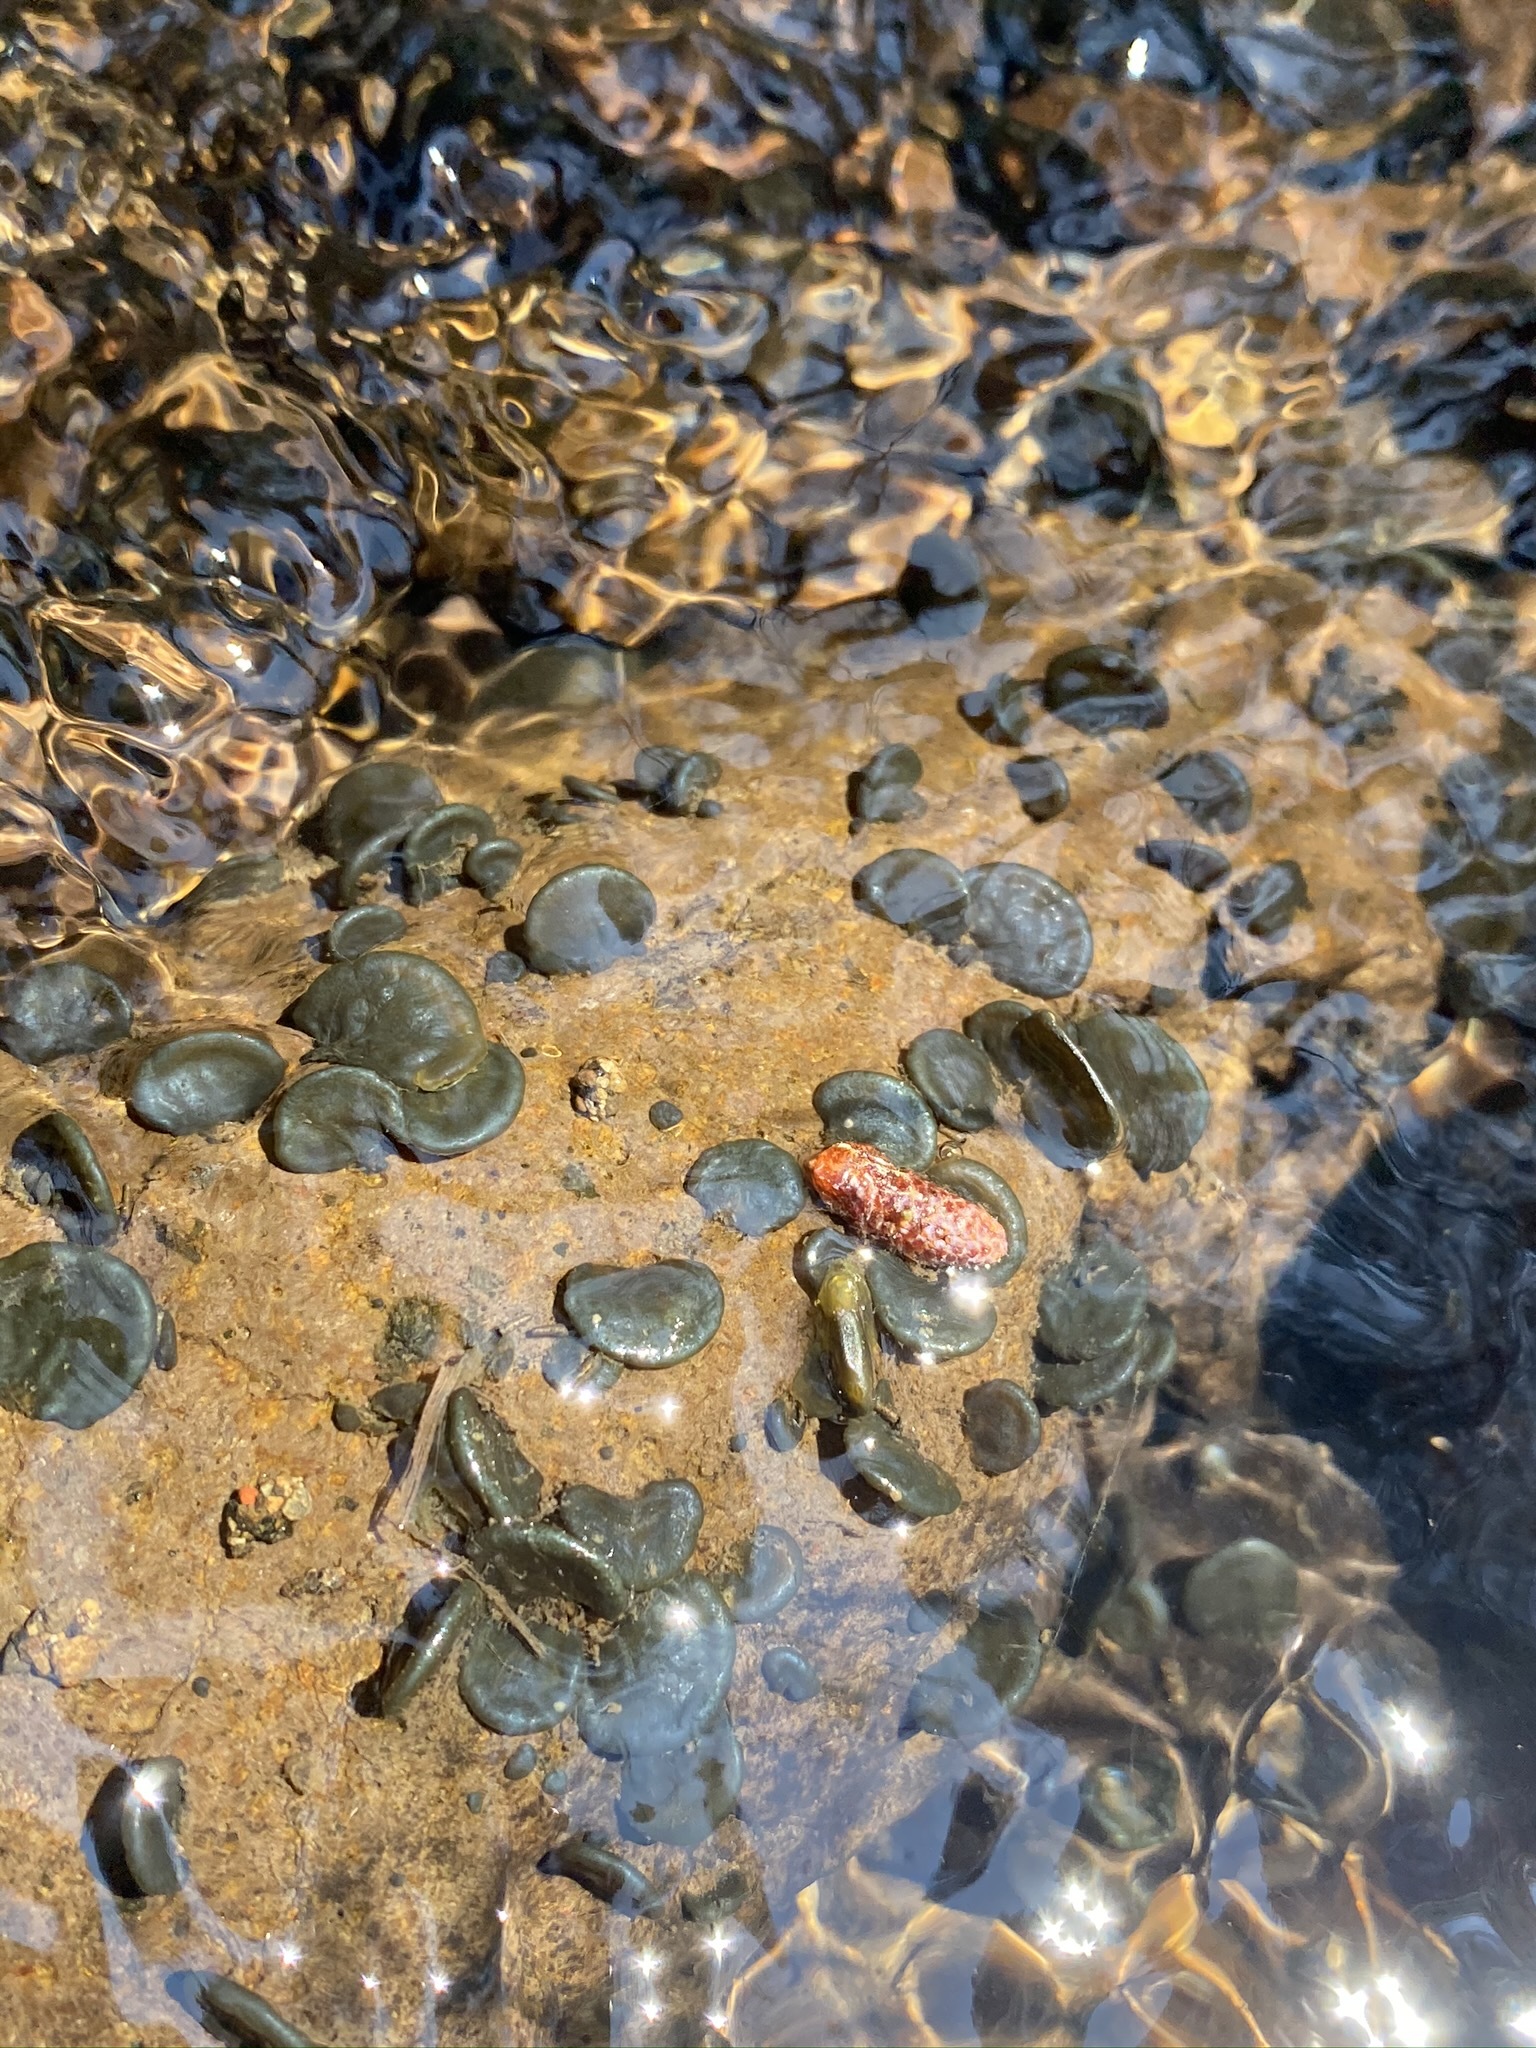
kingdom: Bacteria
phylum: Cyanobacteria
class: Cyanobacteriia
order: Cyanobacteriales
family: Nostocaceae
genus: Nostoc
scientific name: Nostoc parmelioides
